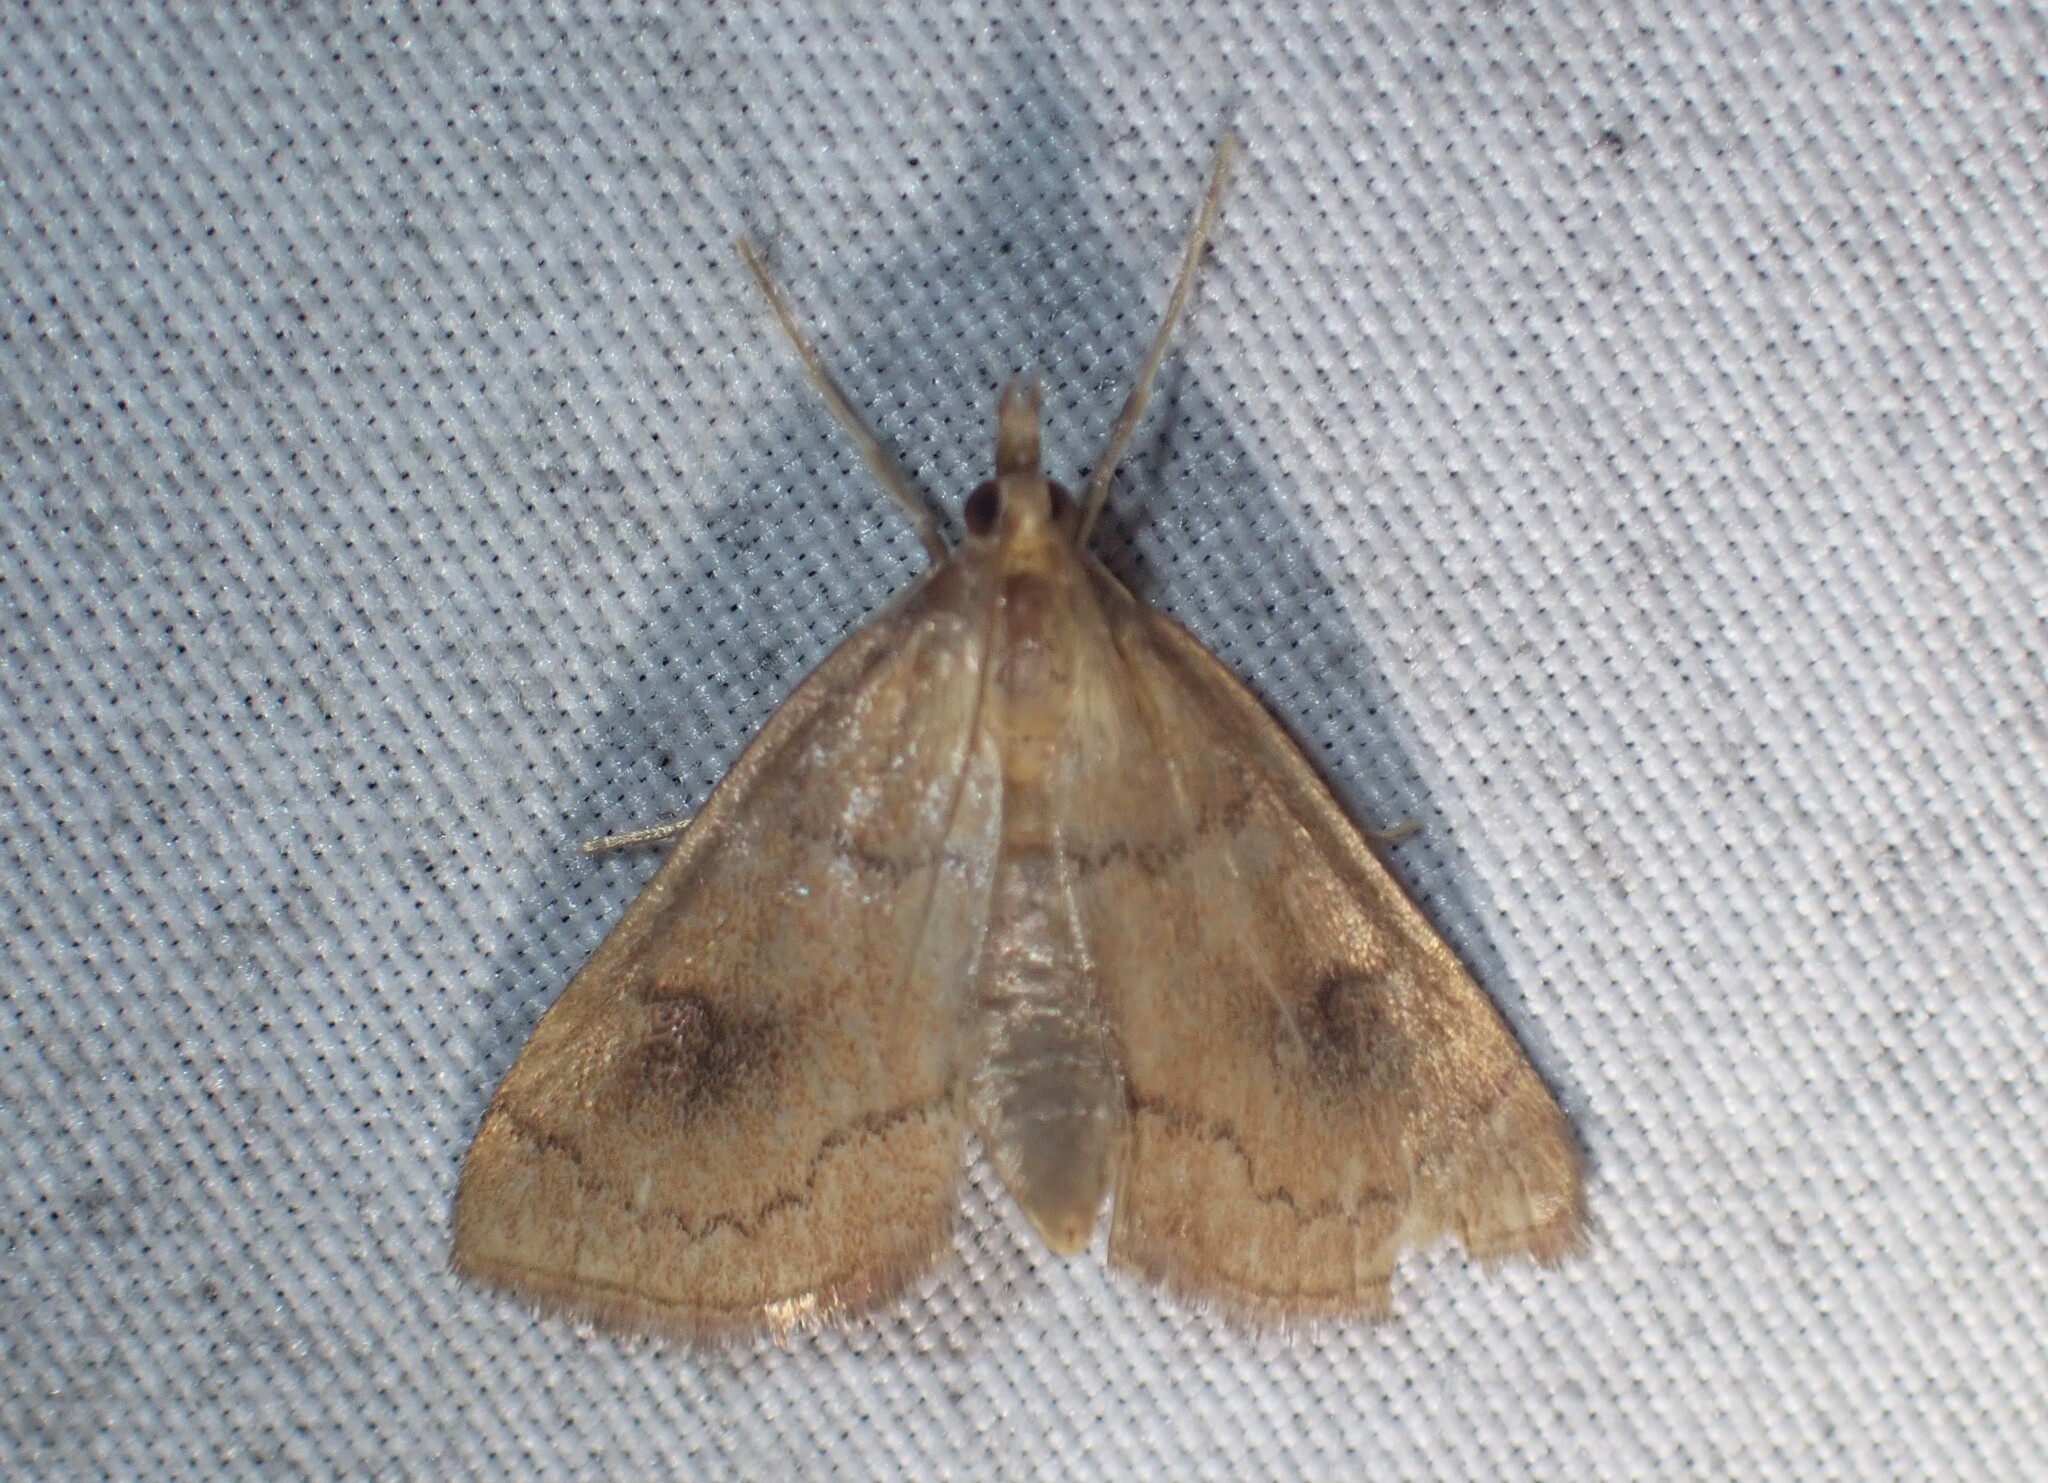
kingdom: Animalia
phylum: Arthropoda
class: Insecta
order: Lepidoptera
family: Crambidae
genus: Fumibotys
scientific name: Fumibotys fumalis
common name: Mint root borer moth
